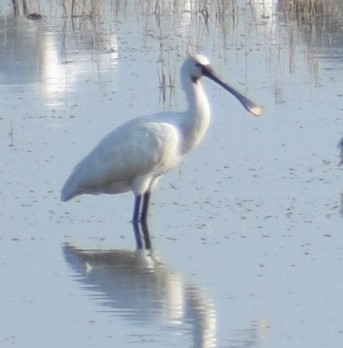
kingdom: Animalia
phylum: Chordata
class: Aves
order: Pelecaniformes
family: Threskiornithidae
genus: Platalea
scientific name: Platalea leucorodia
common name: Eurasian spoonbill
